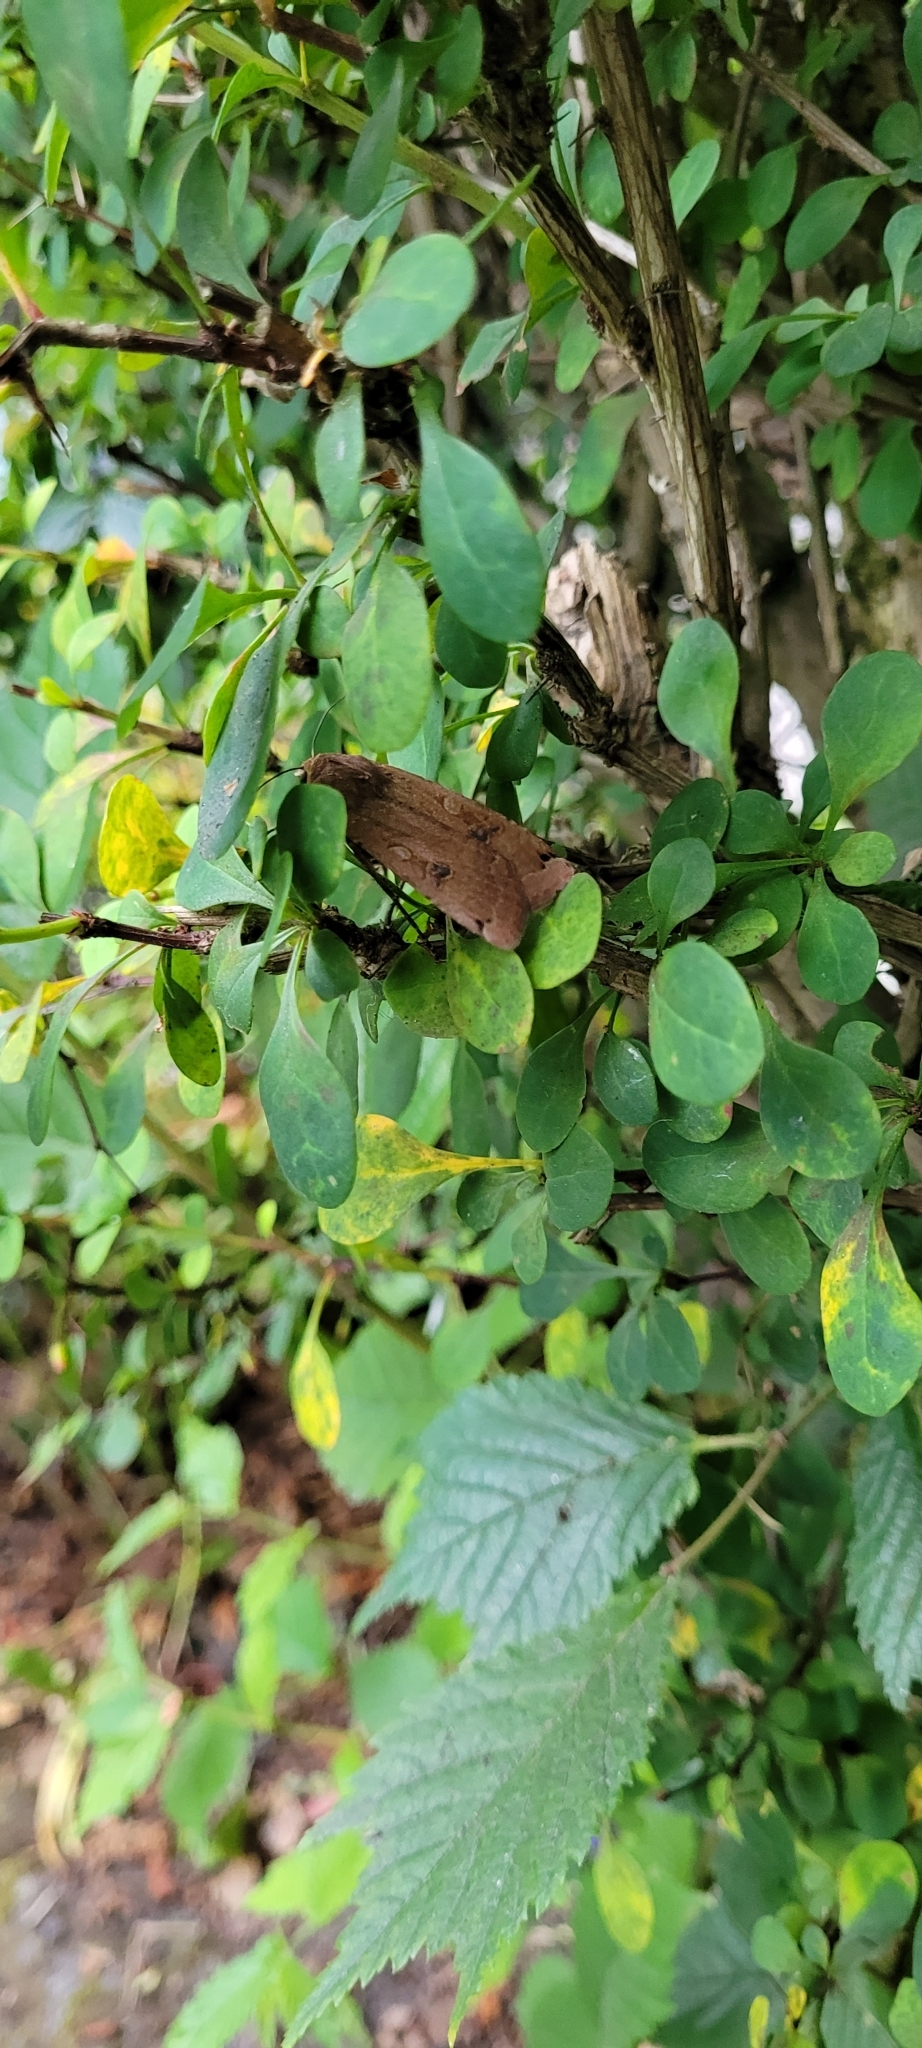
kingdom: Animalia
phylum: Arthropoda
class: Insecta
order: Lepidoptera
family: Noctuidae
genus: Noctua
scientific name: Noctua pronuba
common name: Large yellow underwing
